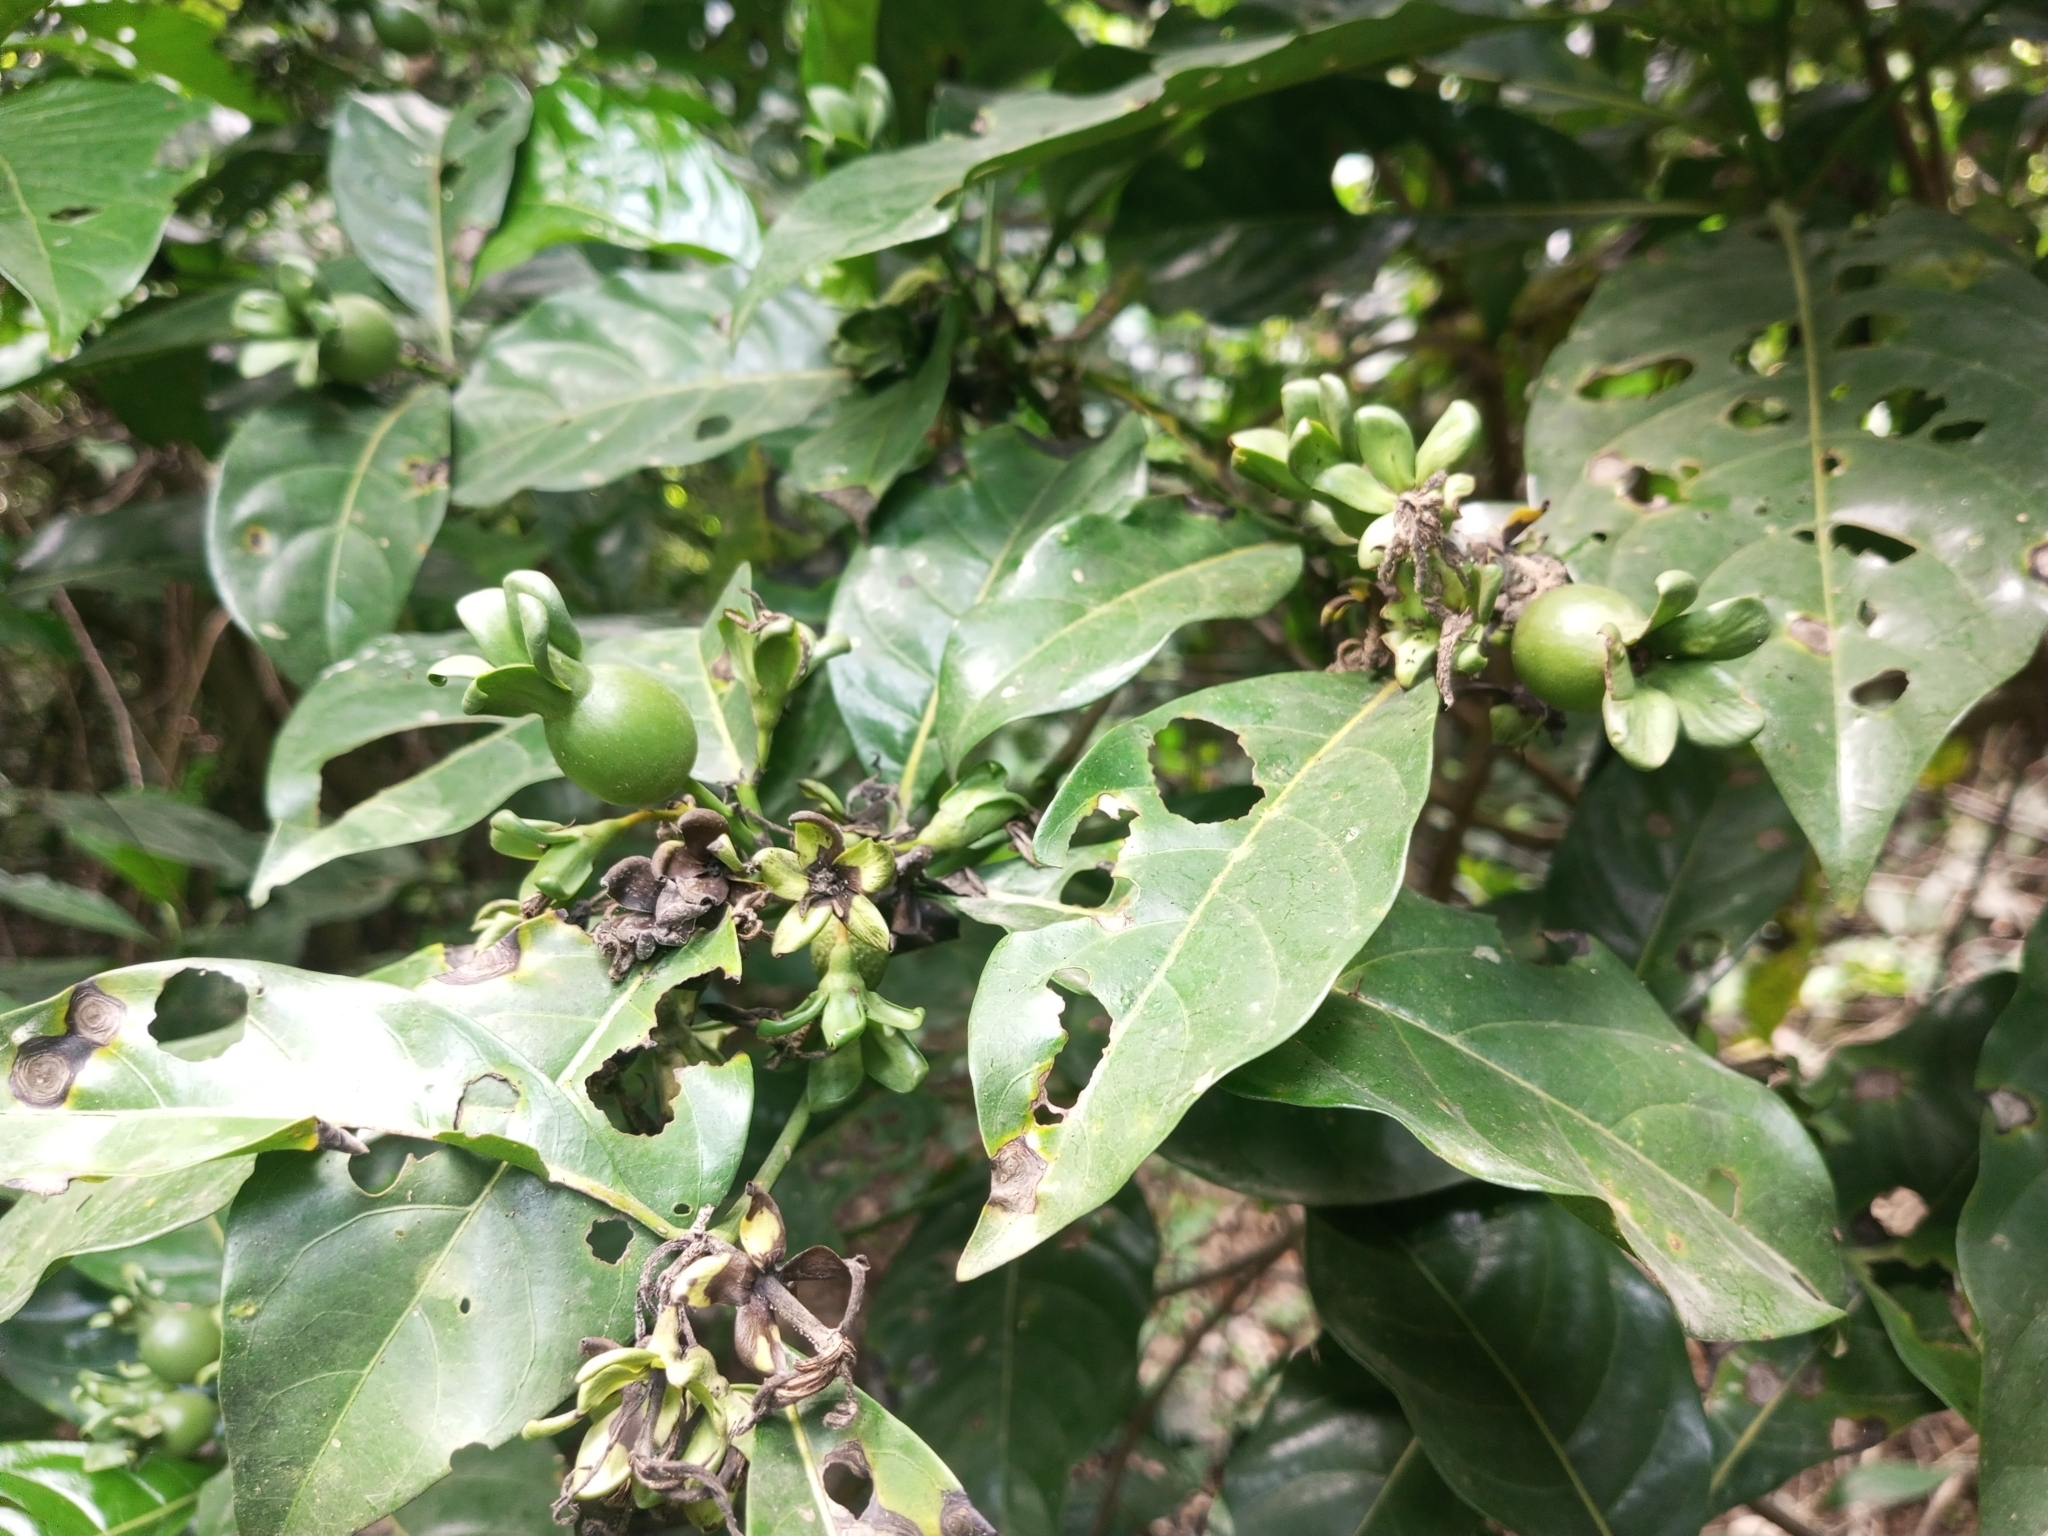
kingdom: Plantae
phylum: Tracheophyta
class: Magnoliopsida
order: Gentianales
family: Rubiaceae
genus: Leptactina
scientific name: Leptactina arborescens
